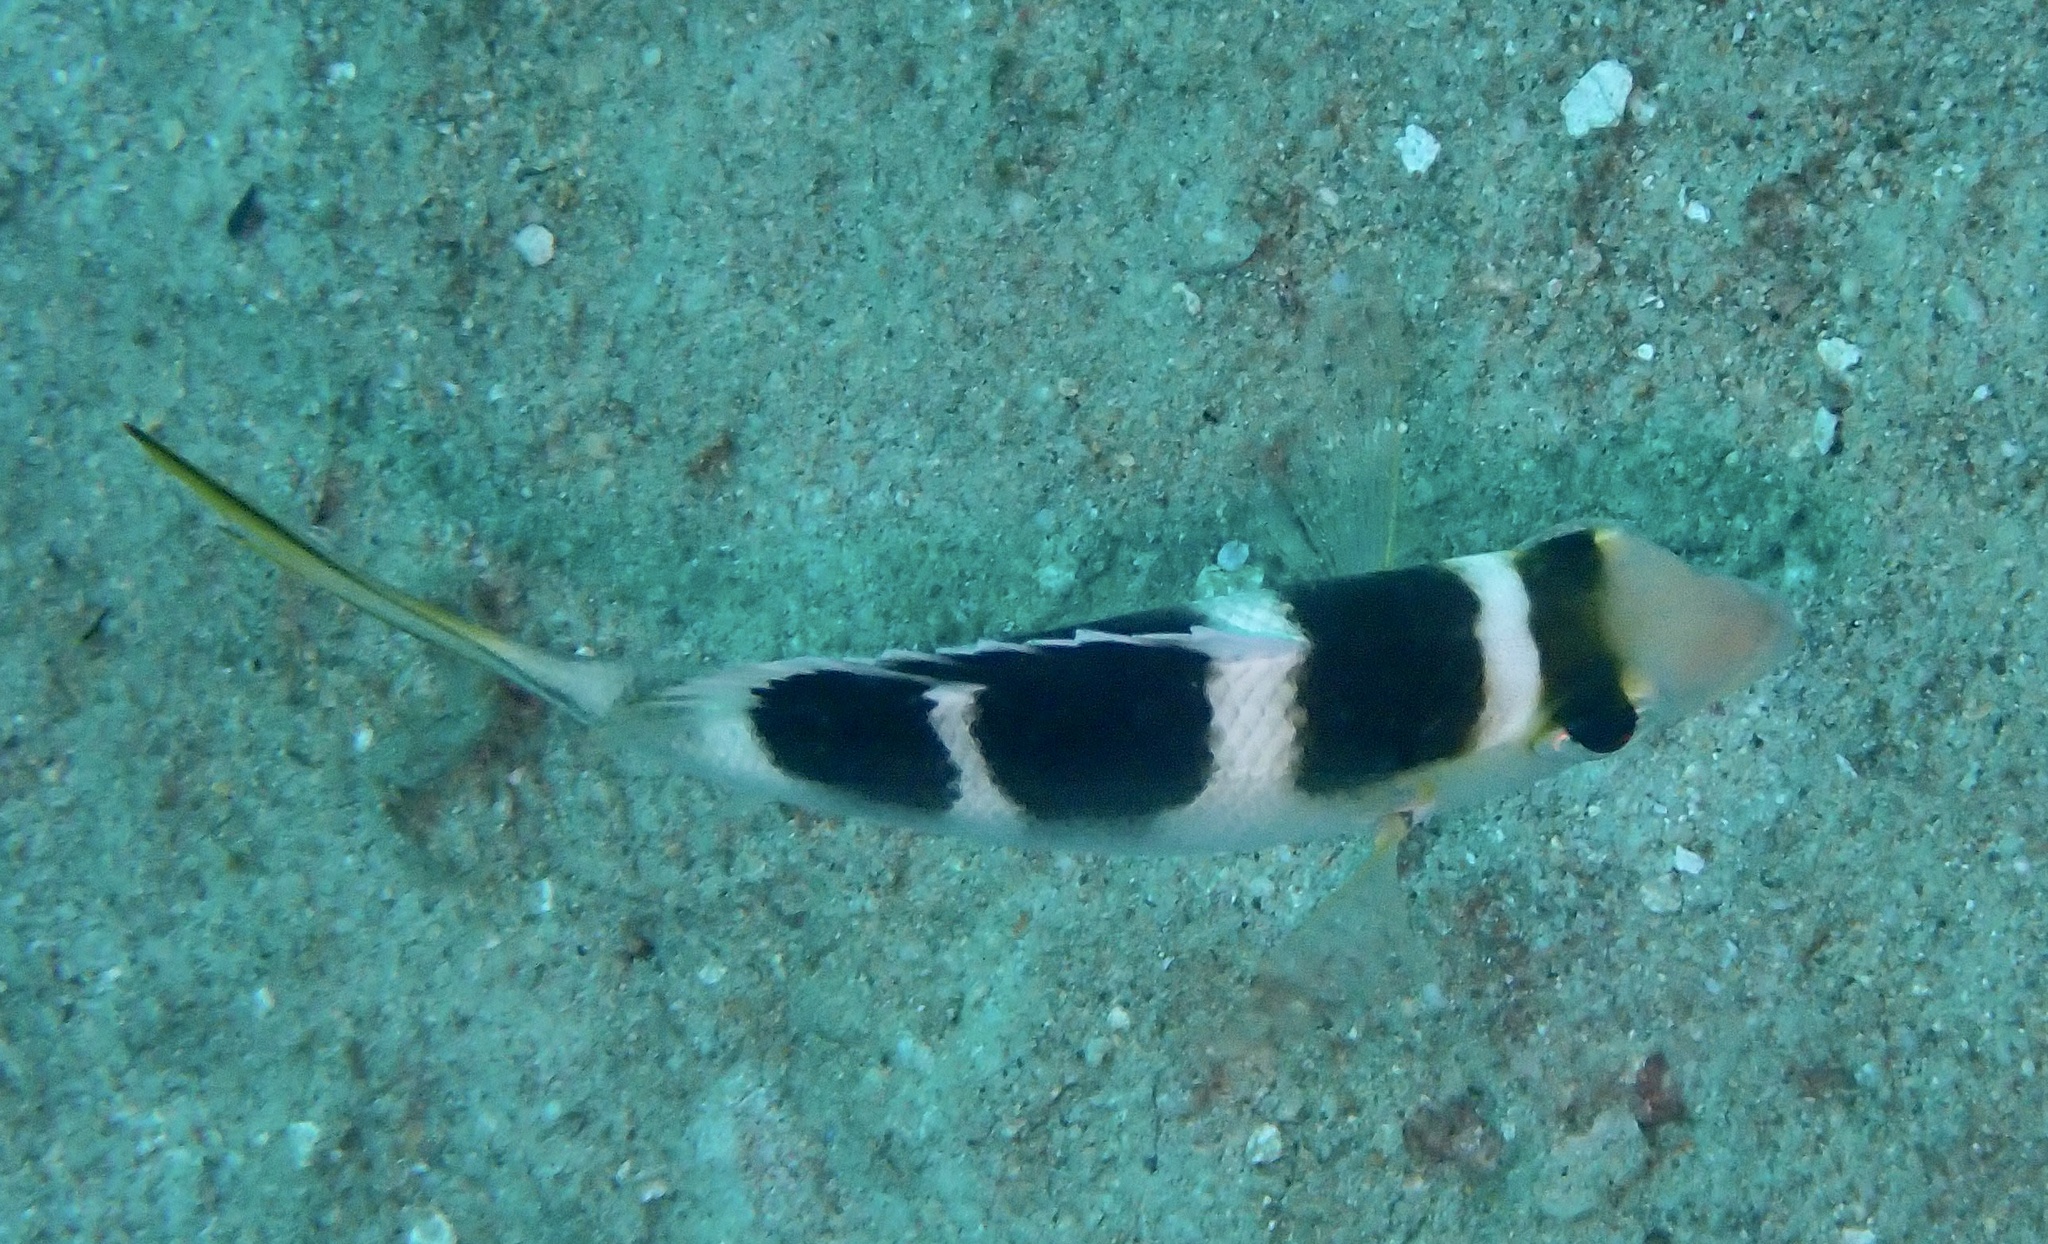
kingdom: Animalia
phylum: Chordata
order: Perciformes
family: Lethrinidae
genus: Monotaxis
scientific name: Monotaxis grandoculis
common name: Bigeye emperor
